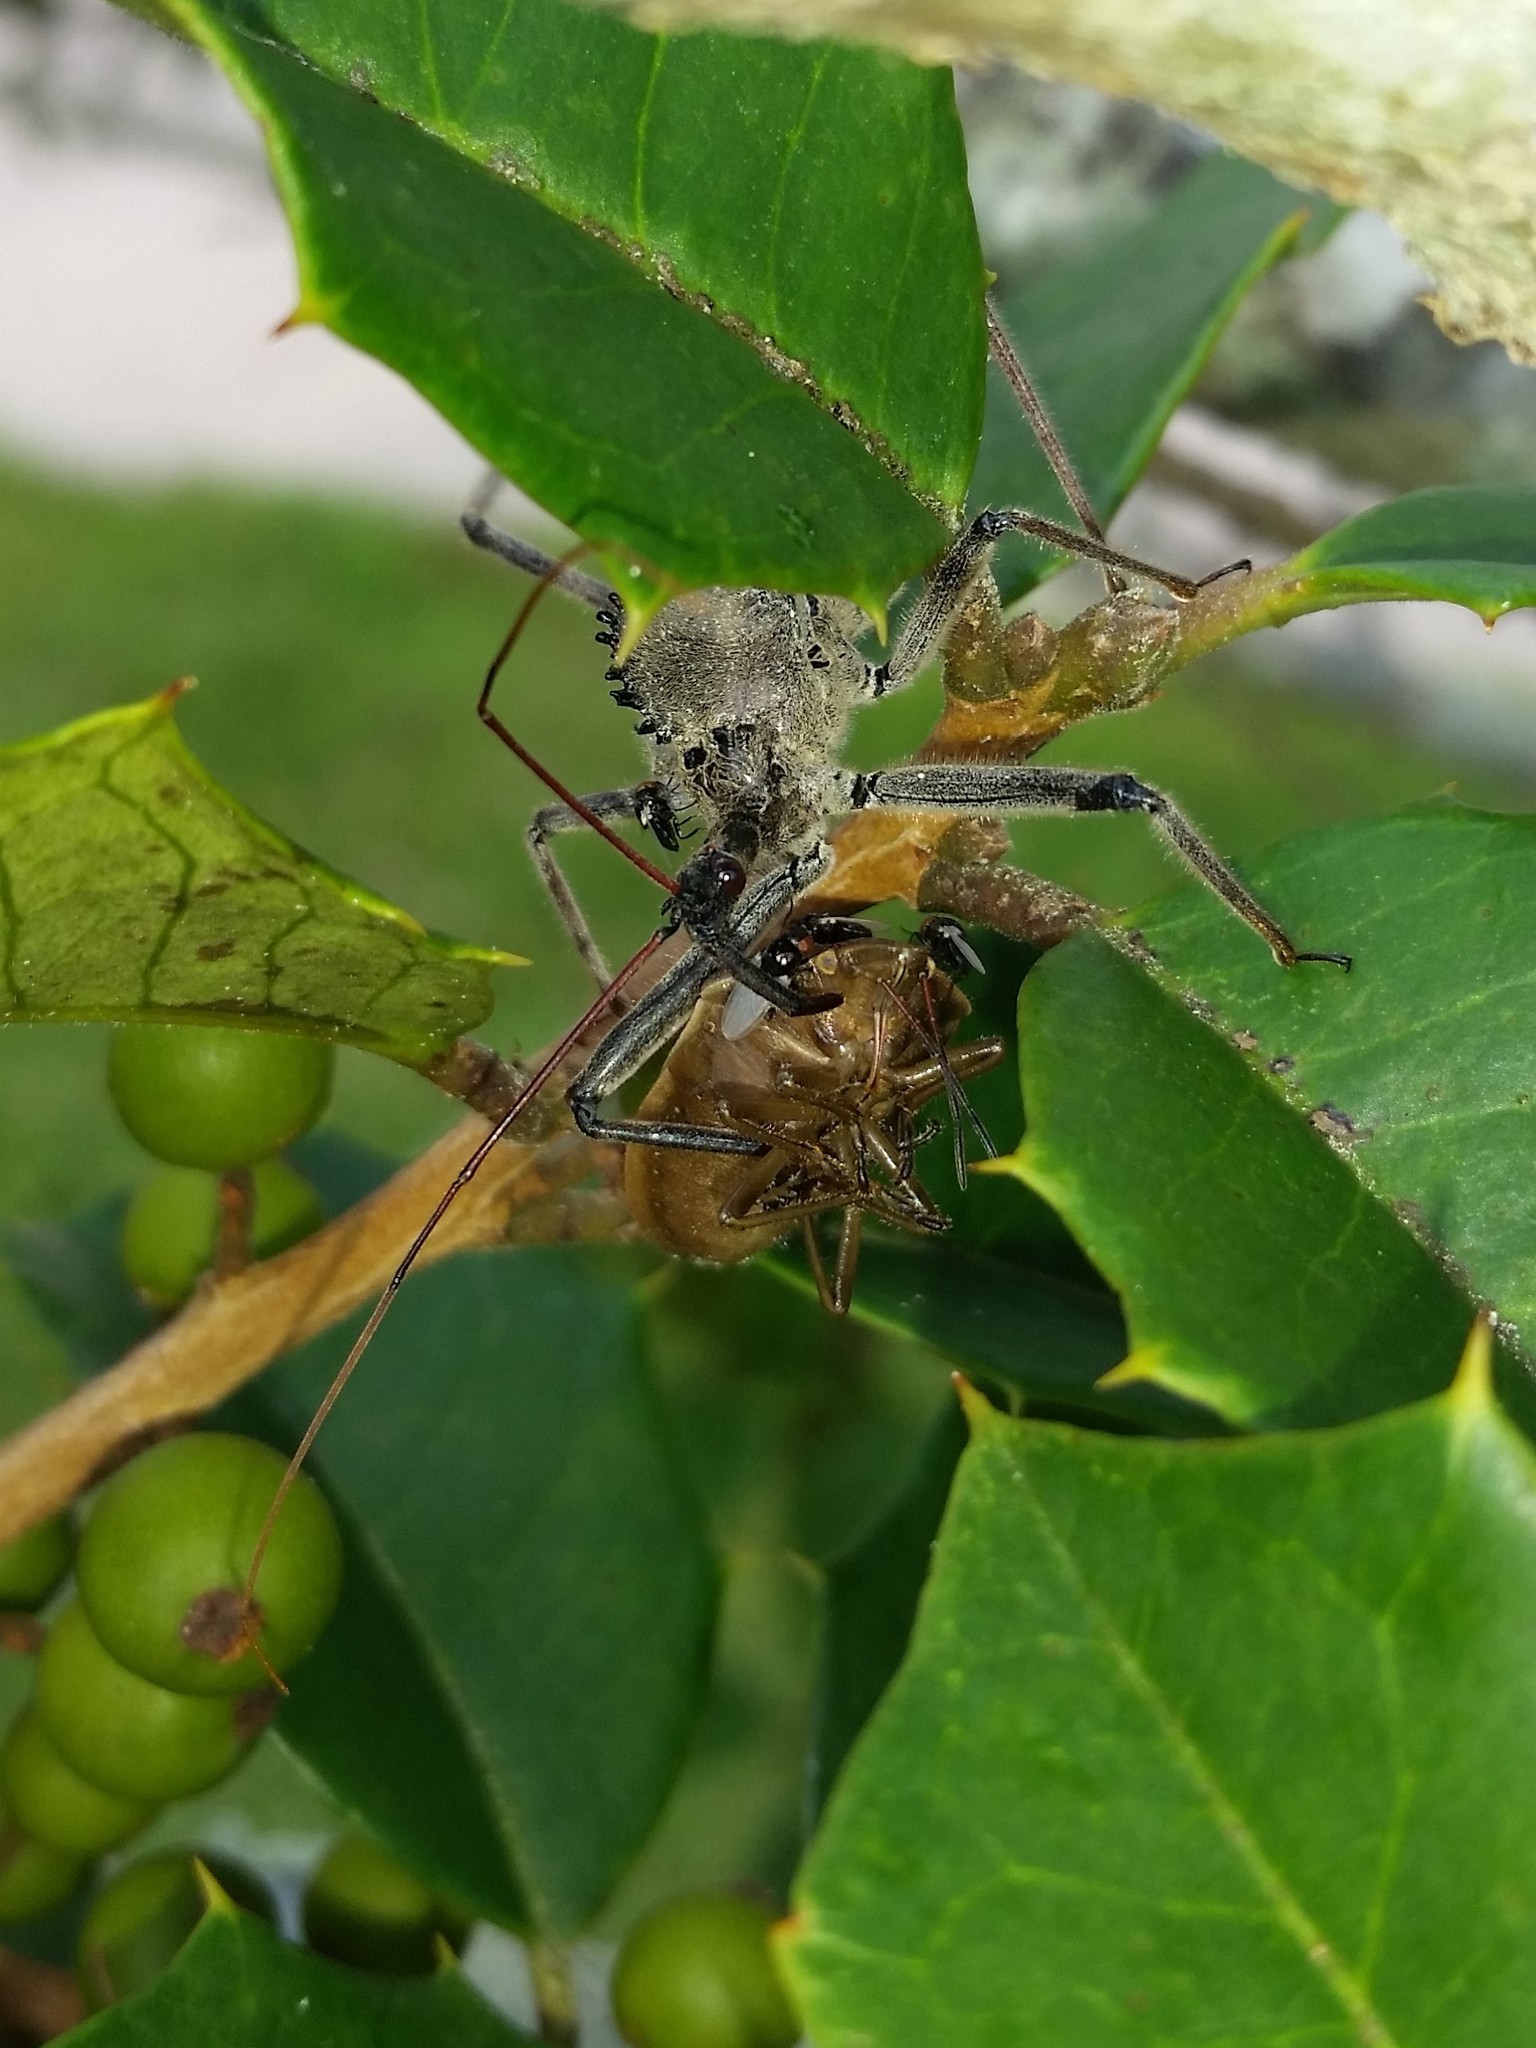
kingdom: Animalia
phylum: Arthropoda
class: Insecta
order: Hemiptera
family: Reduviidae
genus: Arilus
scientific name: Arilus cristatus
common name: North american wheel bug
